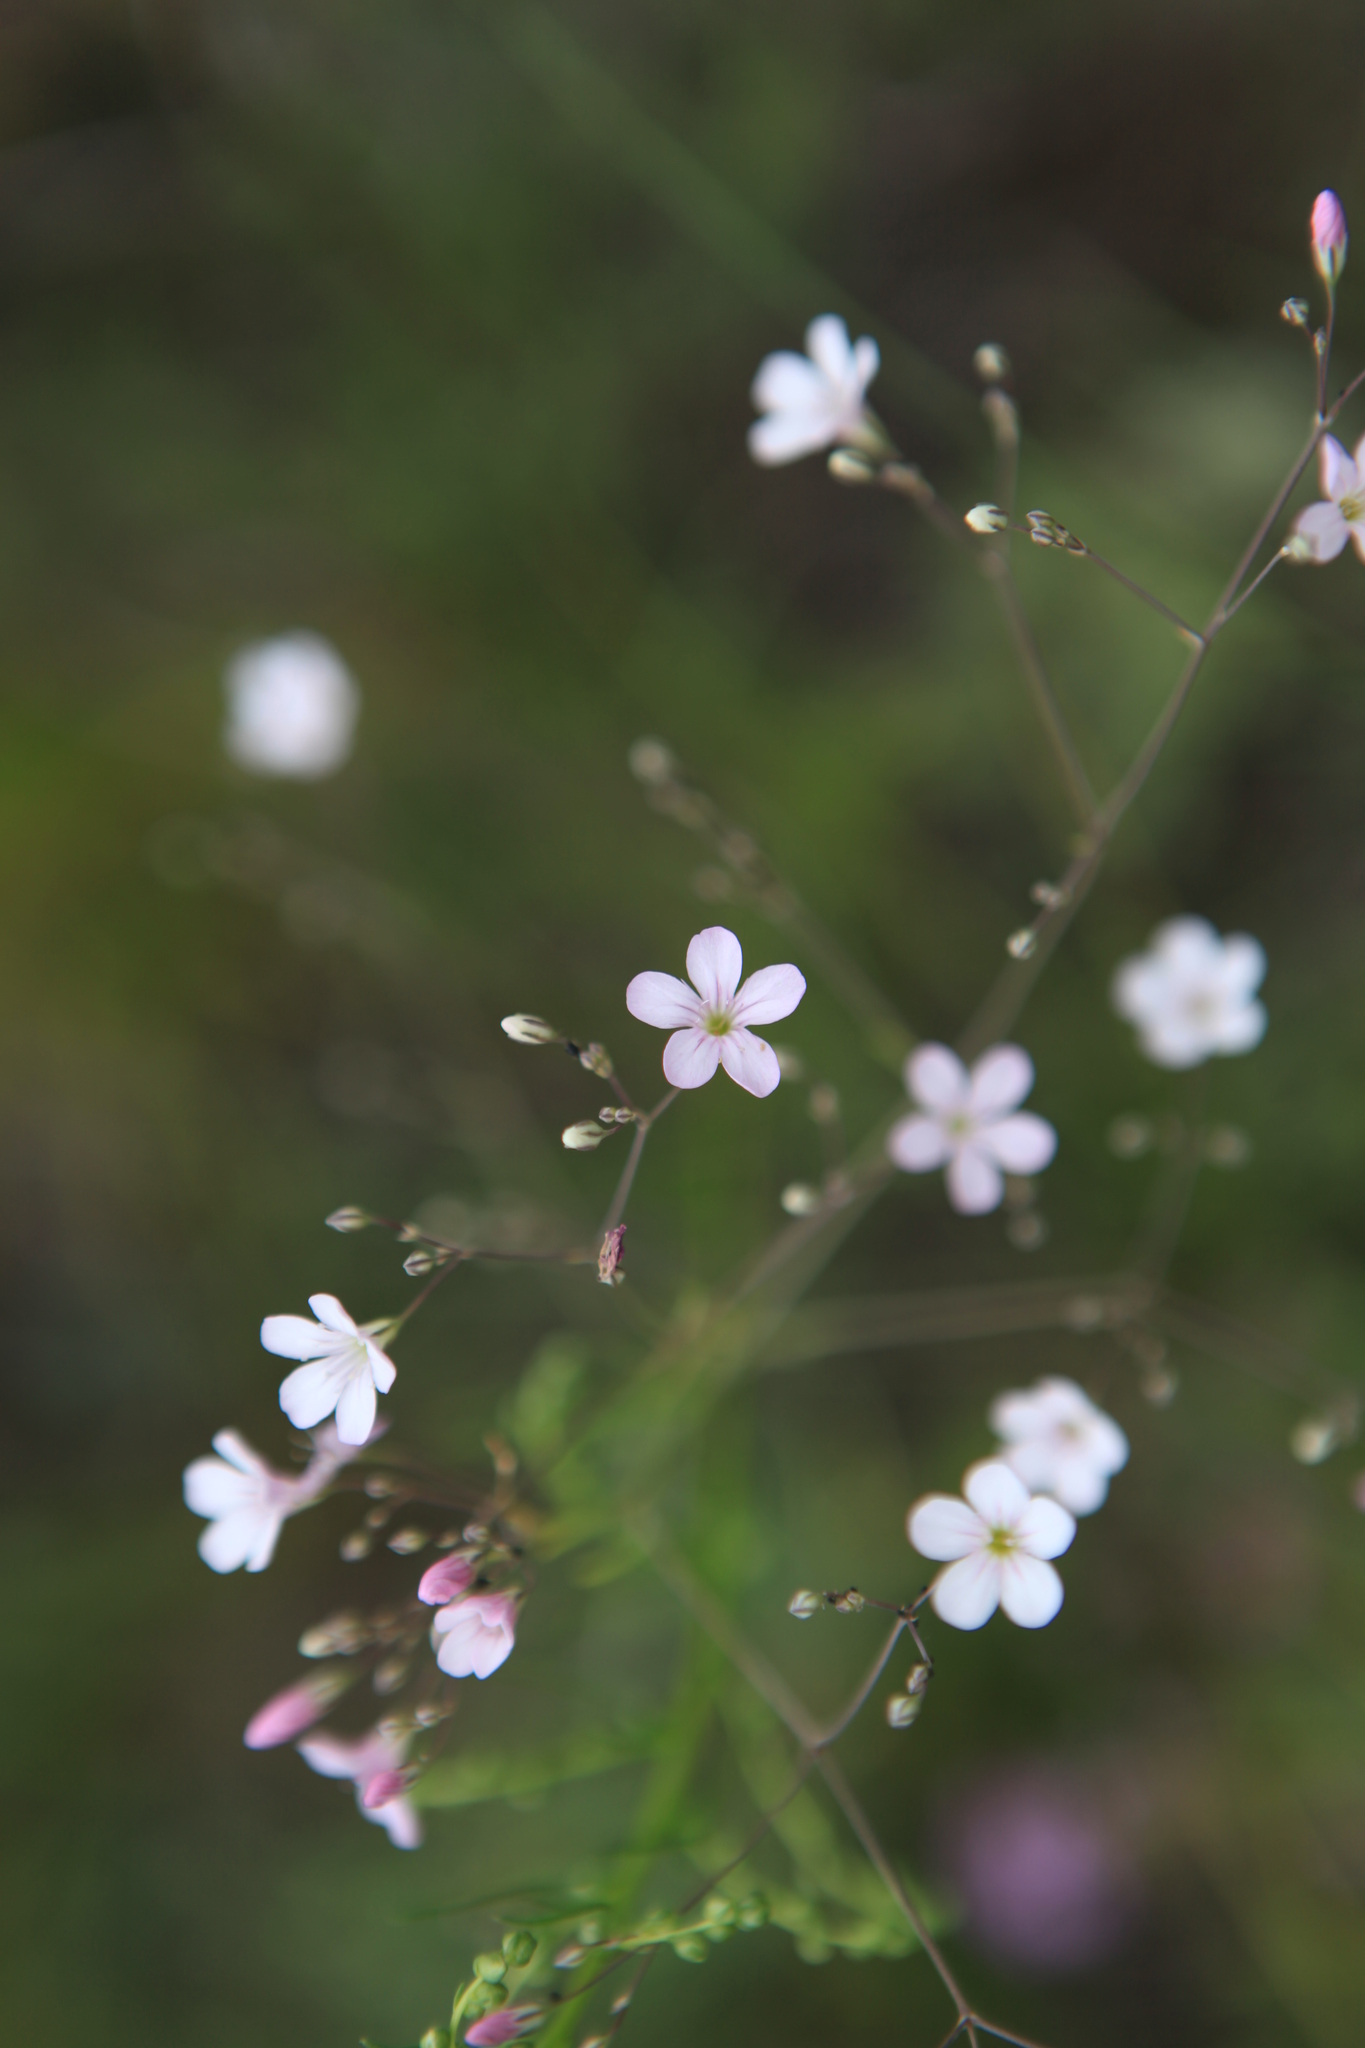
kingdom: Plantae
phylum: Tracheophyta
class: Magnoliopsida
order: Caryophyllales
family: Caryophyllaceae
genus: Gypsophila
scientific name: Gypsophila patrinii
